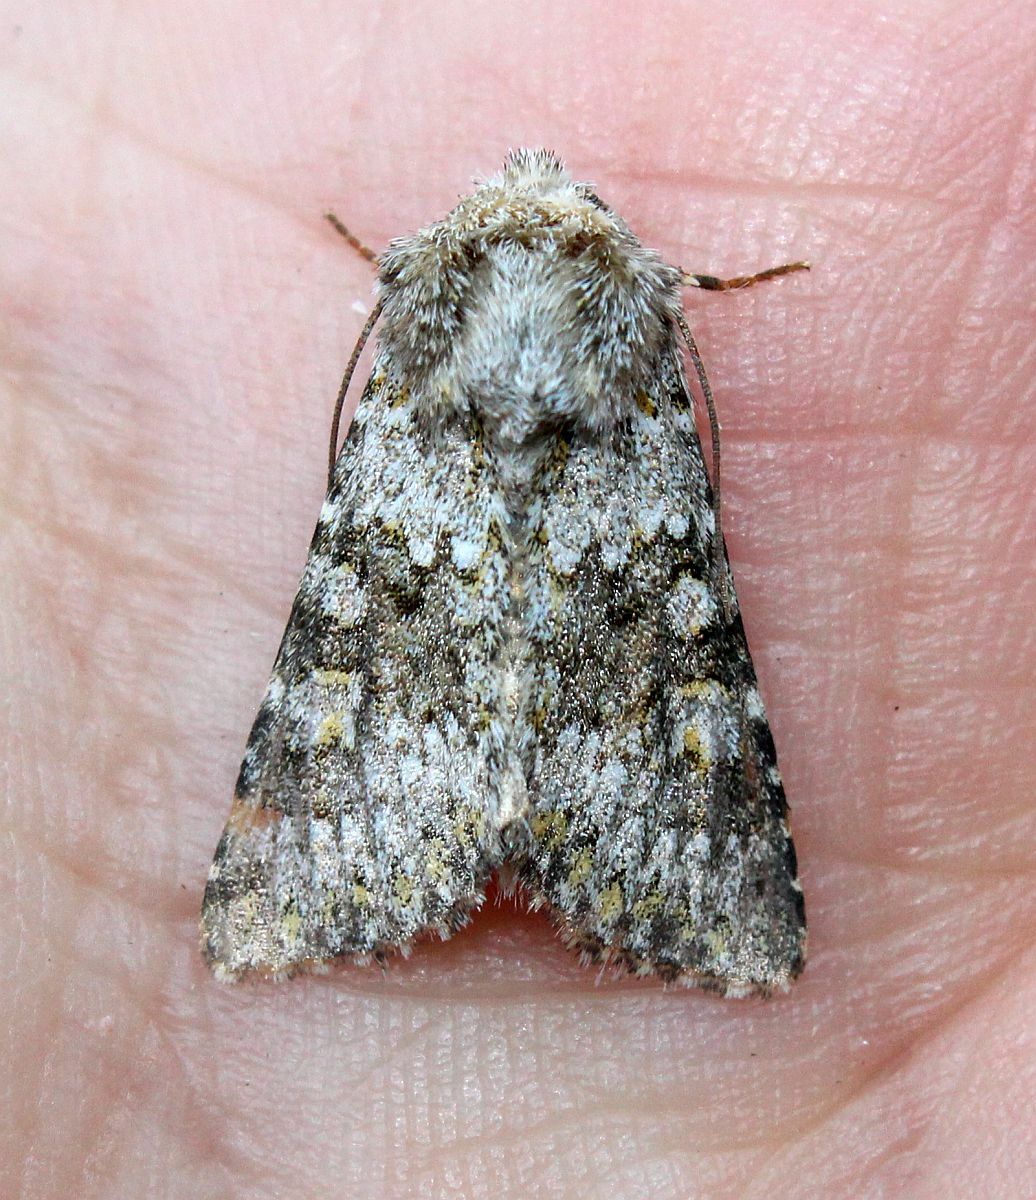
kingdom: Animalia
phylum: Arthropoda
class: Insecta
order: Lepidoptera
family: Noctuidae
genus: Hecatera
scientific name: Hecatera dysodea
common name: Small ranunculus
